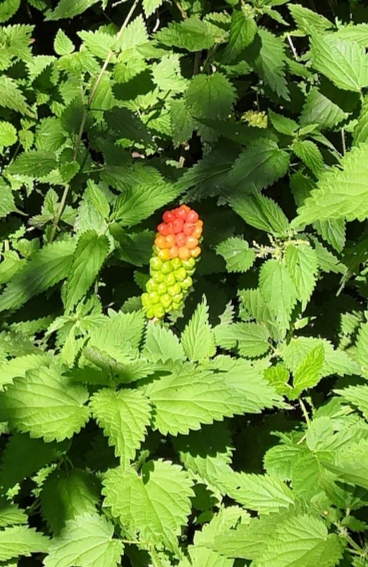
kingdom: Plantae
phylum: Tracheophyta
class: Liliopsida
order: Alismatales
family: Araceae
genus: Arum
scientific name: Arum maculatum
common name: Lords-and-ladies
